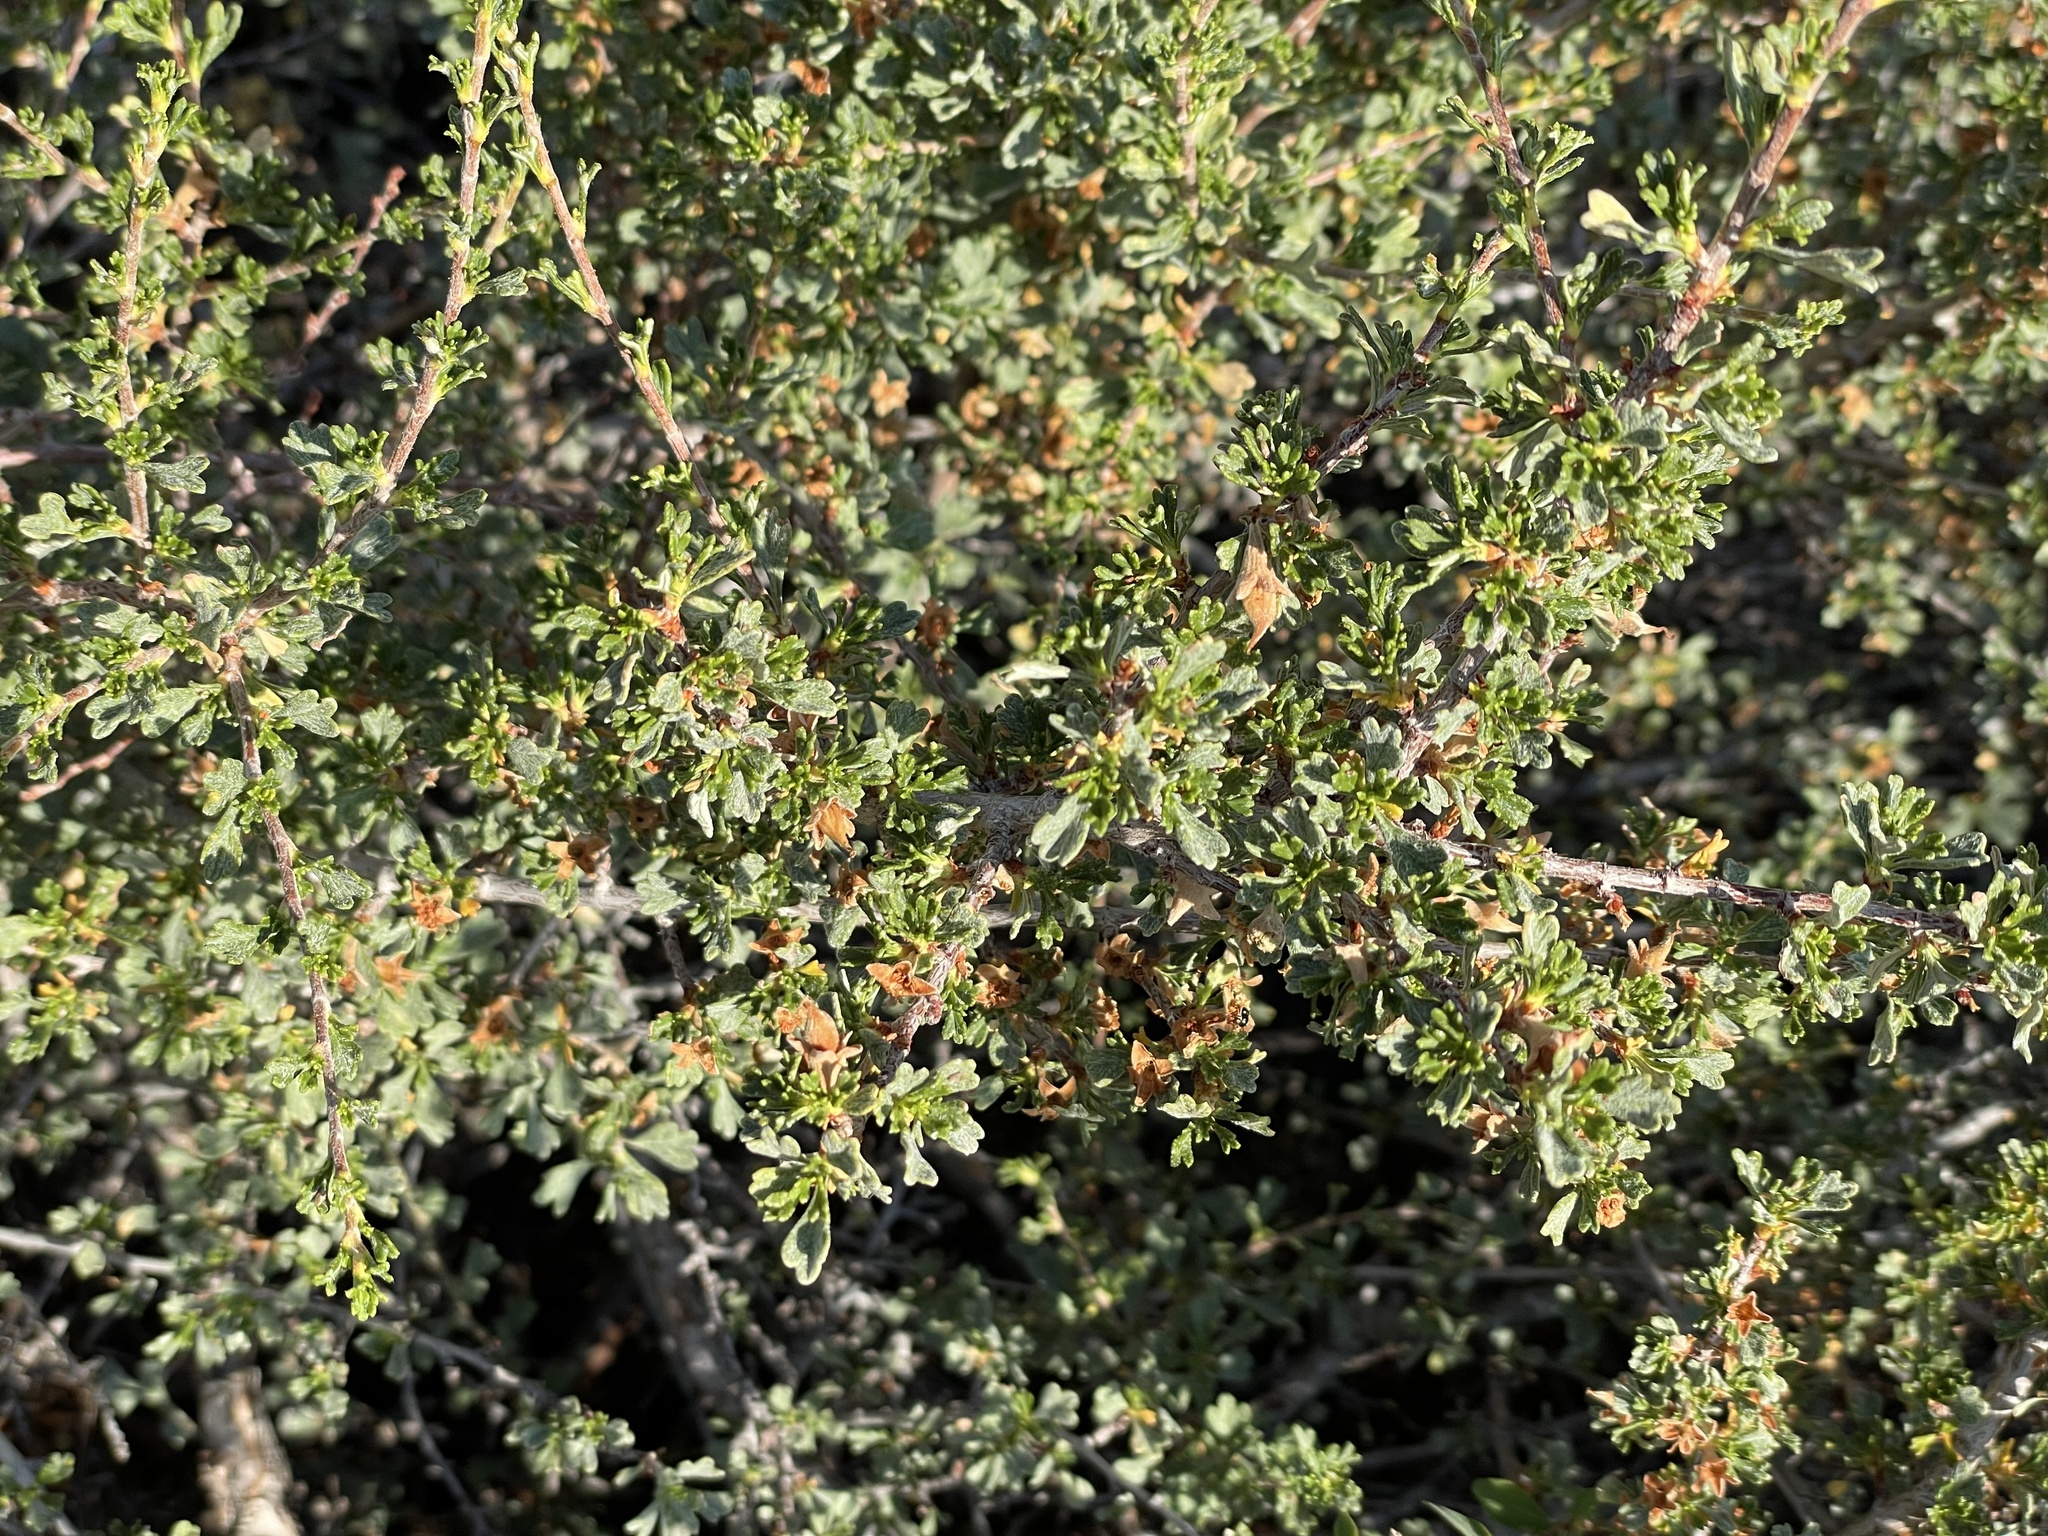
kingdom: Plantae
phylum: Tracheophyta
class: Magnoliopsida
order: Rosales
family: Rosaceae
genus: Purshia
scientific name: Purshia tridentata
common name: Antelope bitterbrush
